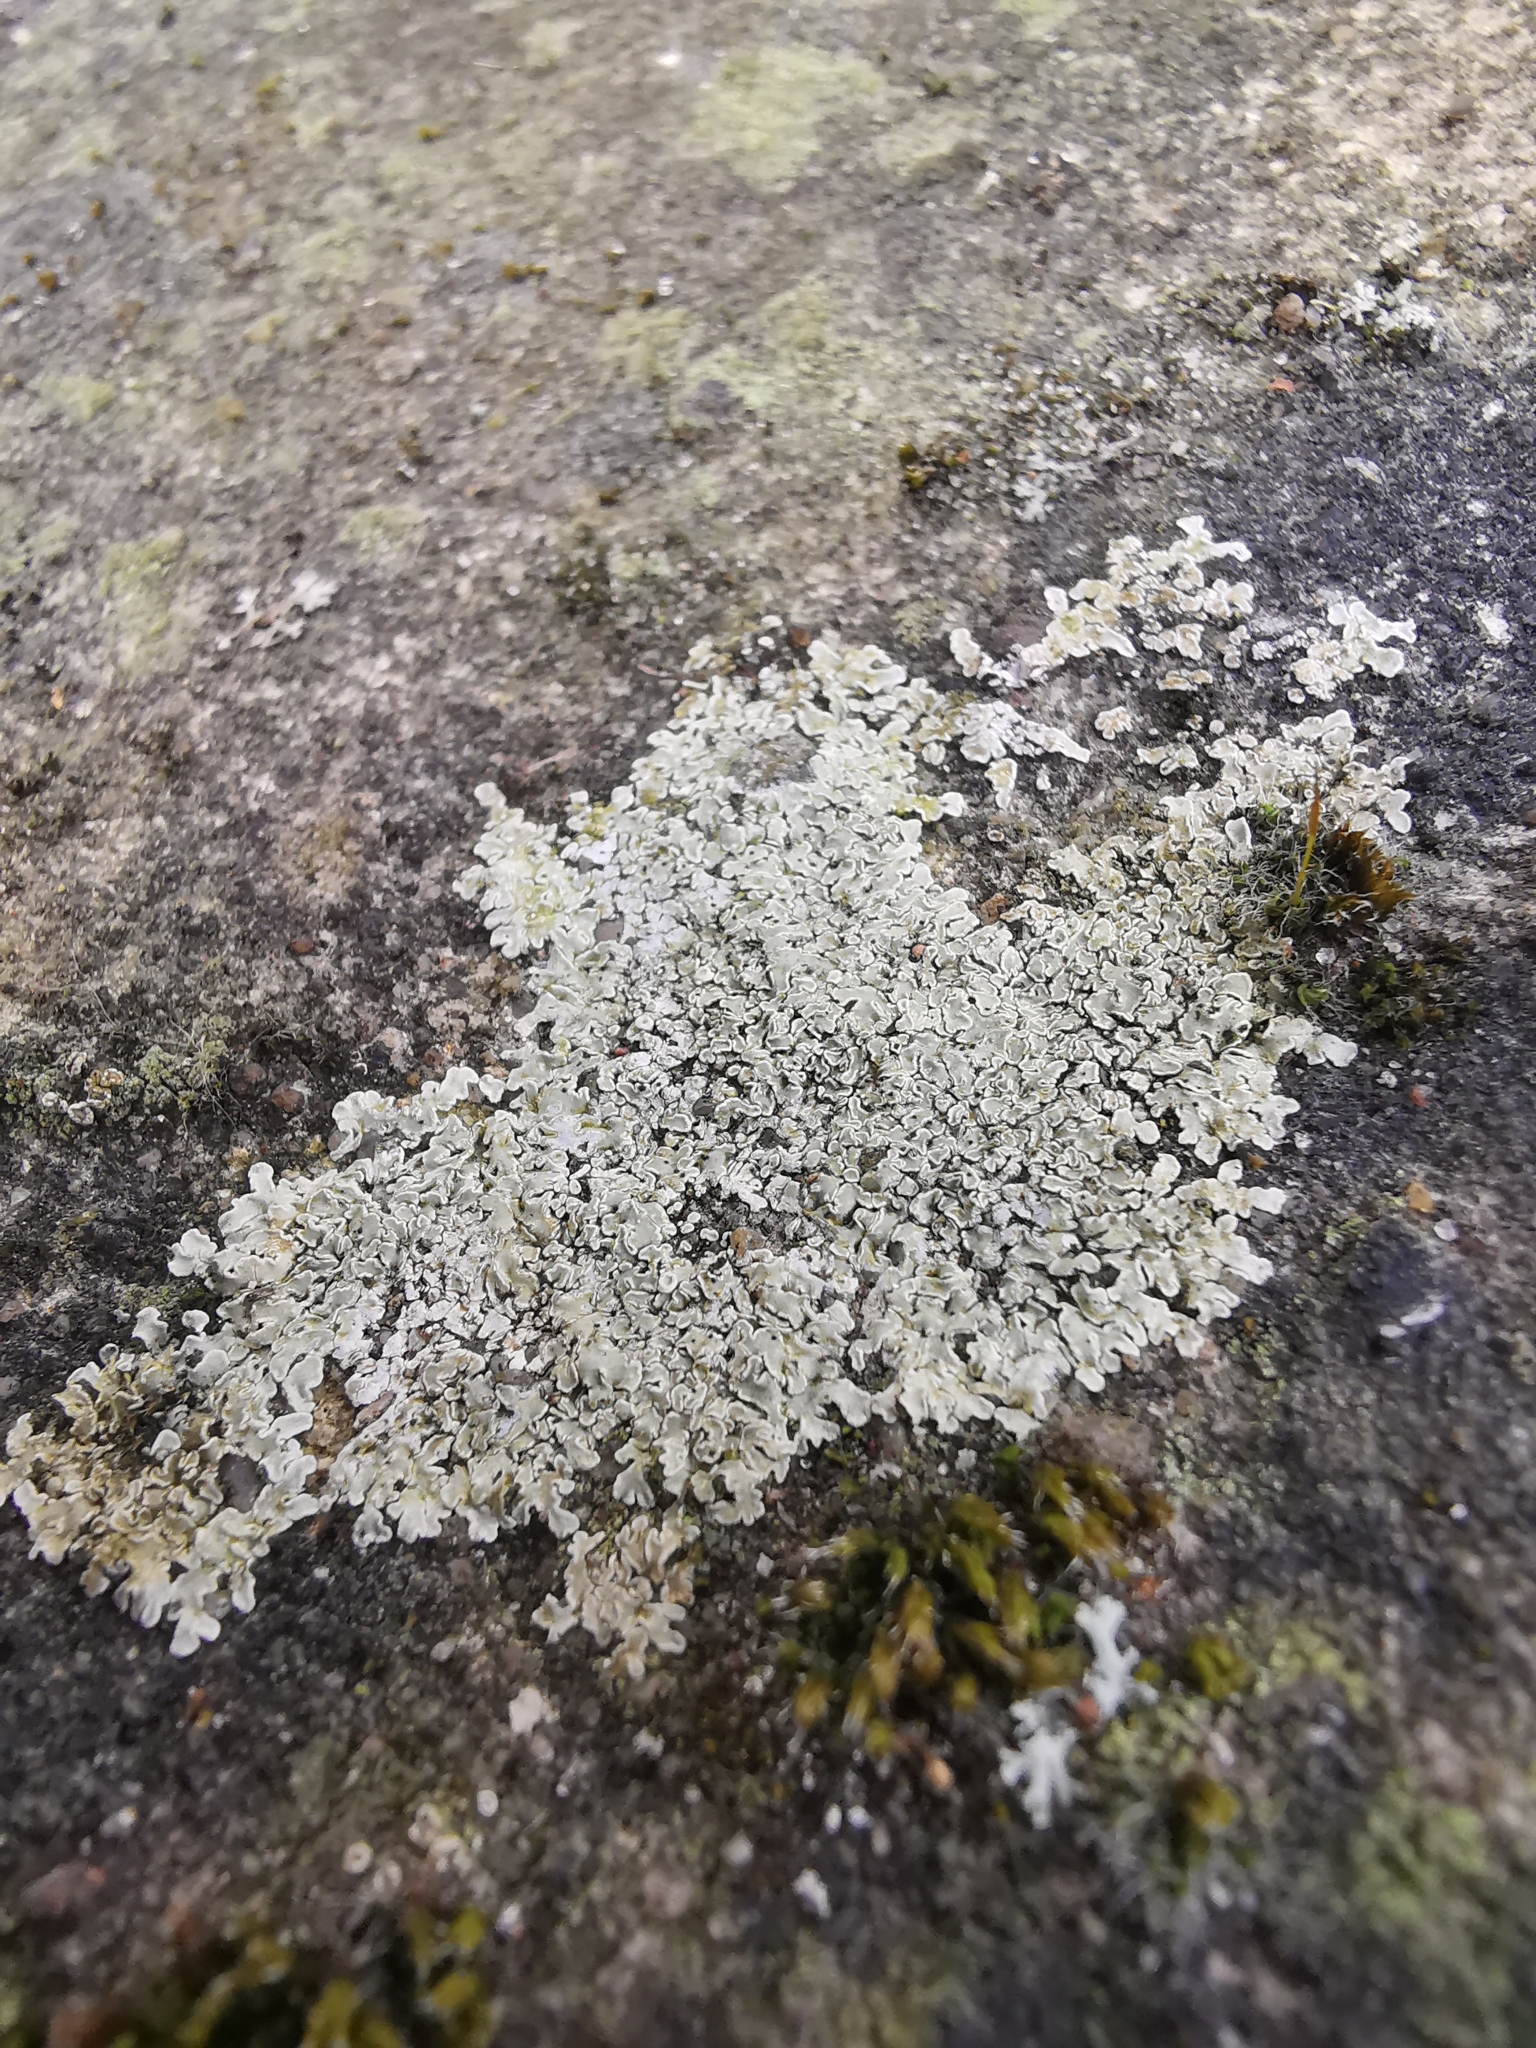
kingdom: Fungi
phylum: Ascomycota
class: Lecanoromycetes
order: Lecanorales
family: Lecanoraceae
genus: Protoparmeliopsis
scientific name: Protoparmeliopsis muralis
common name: Stonewall rim lichen
